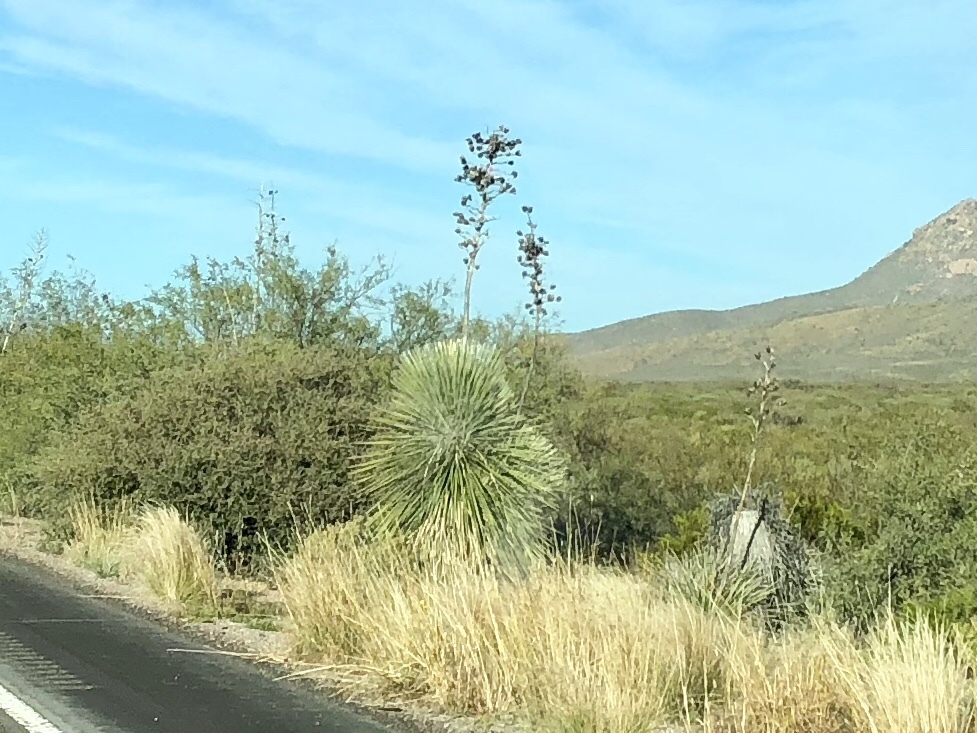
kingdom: Plantae
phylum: Tracheophyta
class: Liliopsida
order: Asparagales
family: Asparagaceae
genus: Yucca
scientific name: Yucca elata
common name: Palmella
